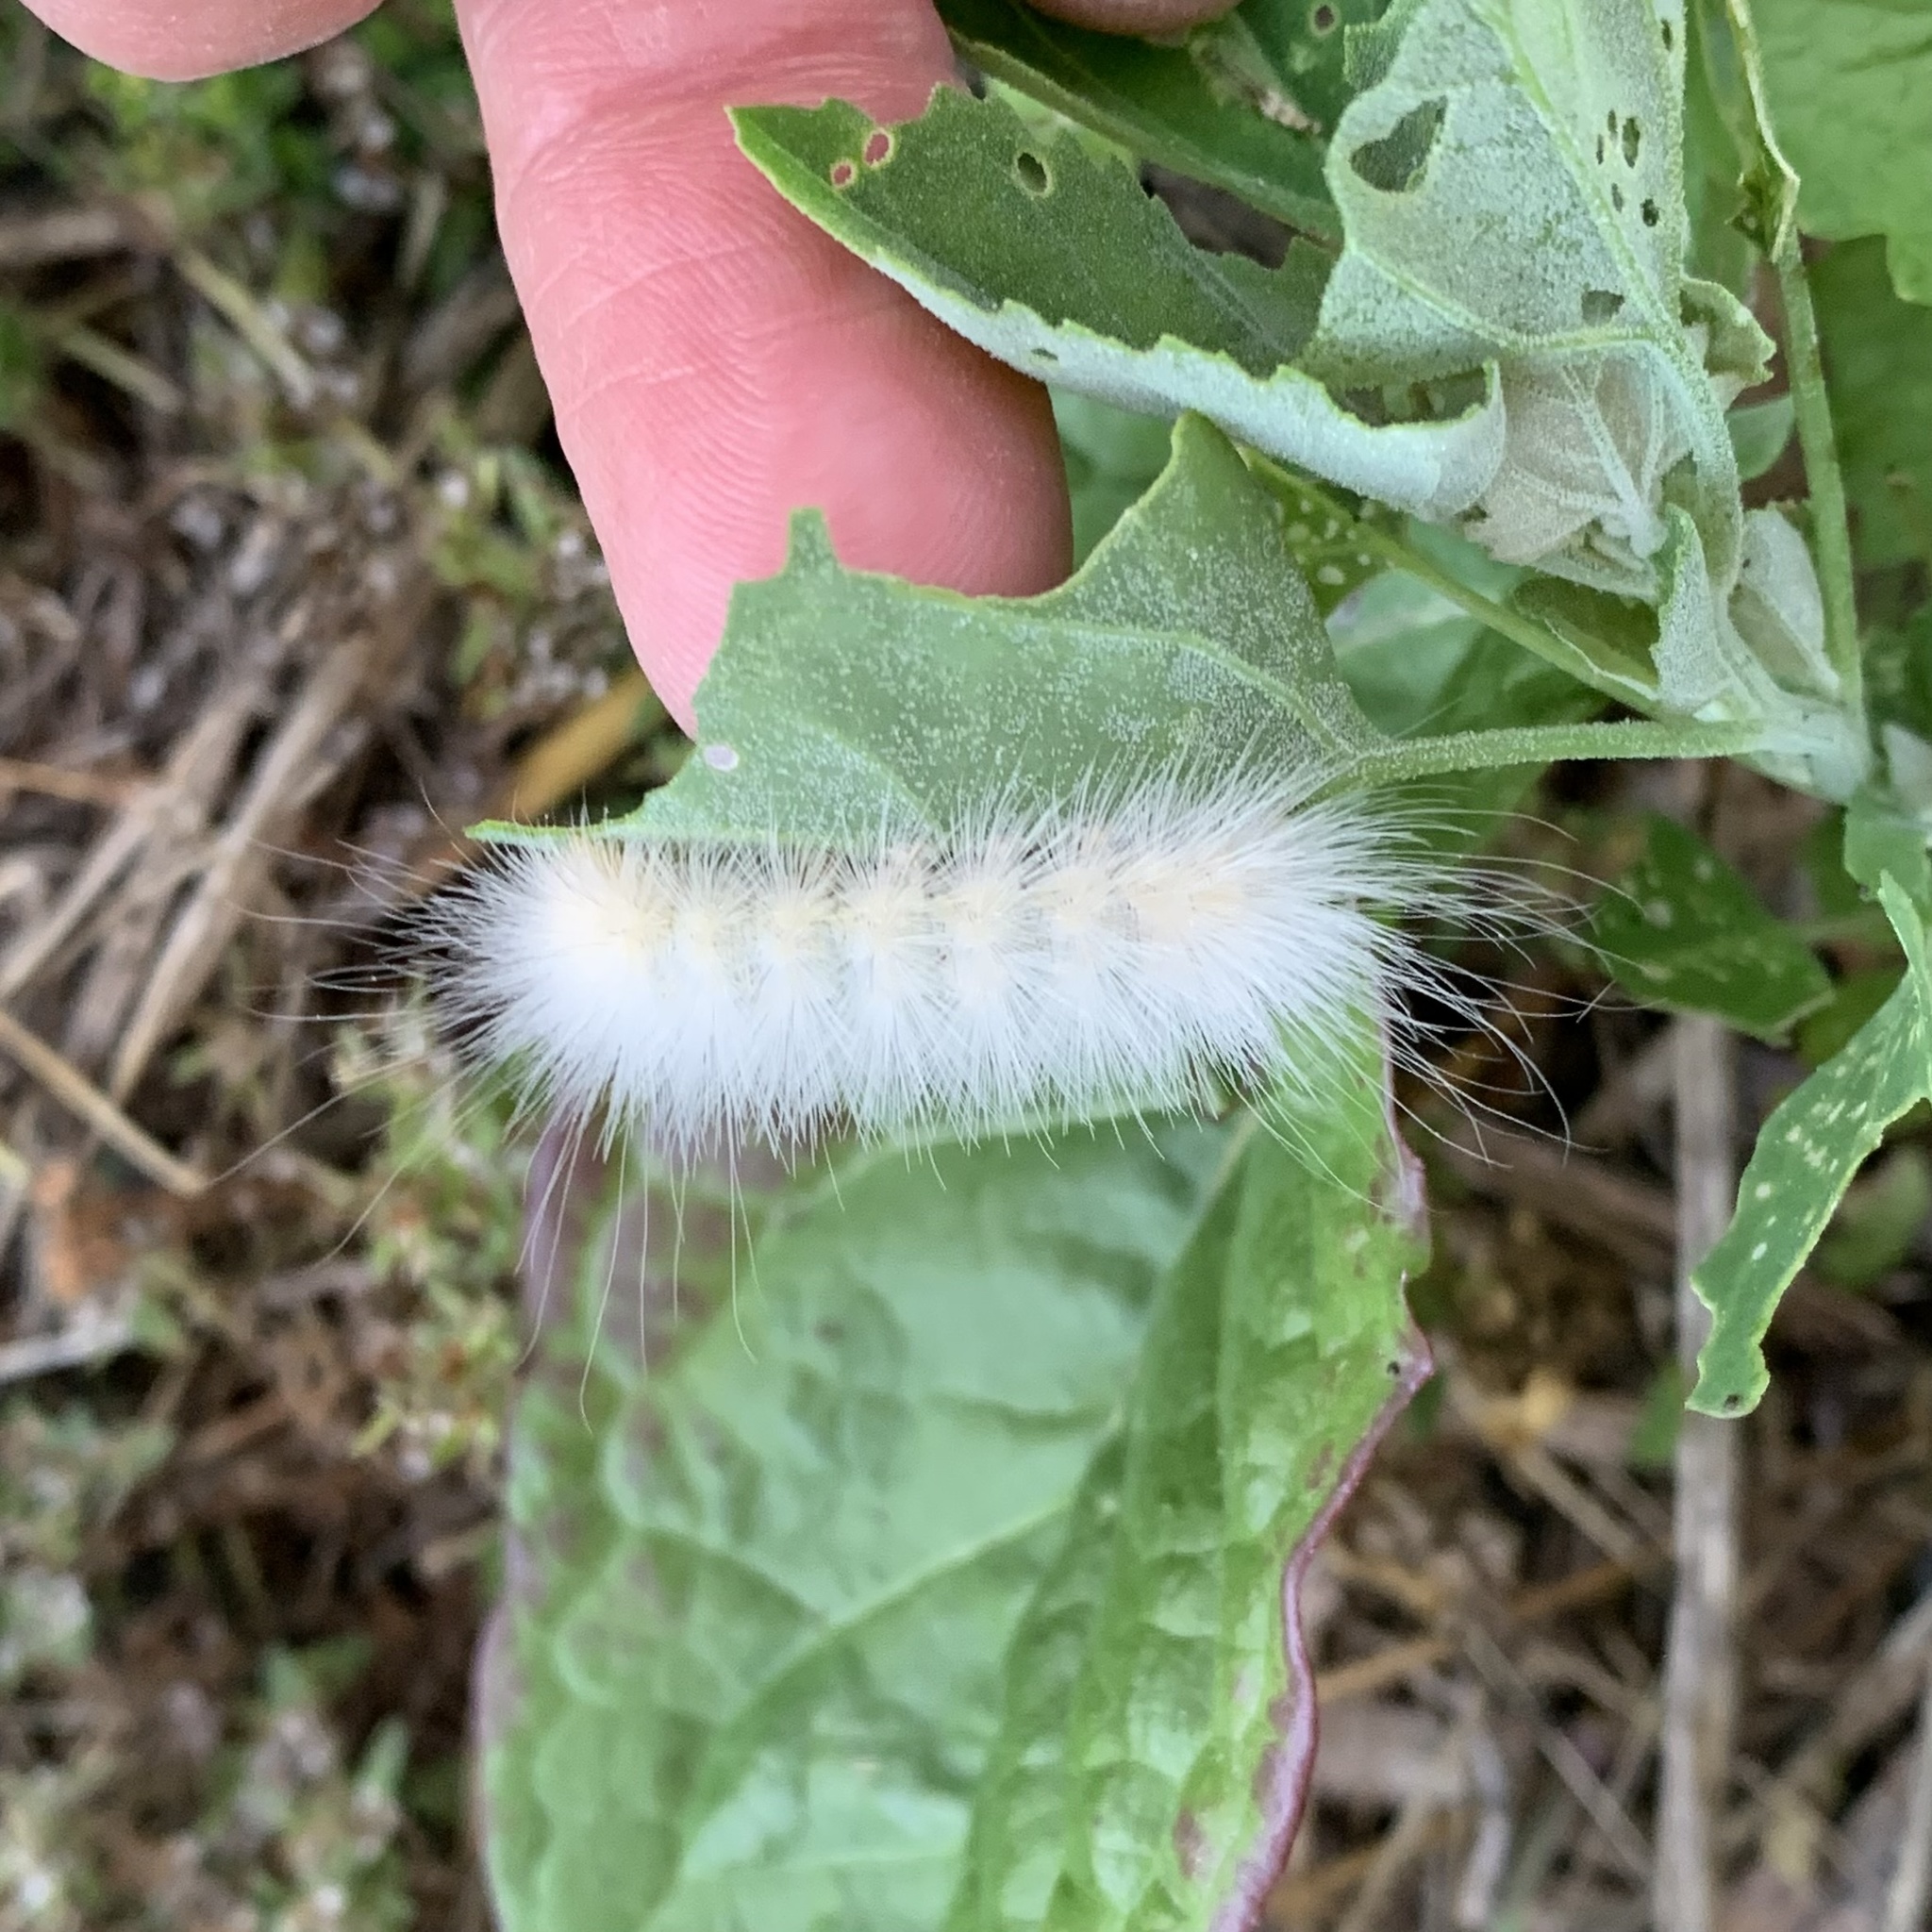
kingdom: Animalia
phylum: Arthropoda
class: Insecta
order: Lepidoptera
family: Erebidae
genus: Spilosoma
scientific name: Spilosoma virginica
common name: Virginia tiger moth
